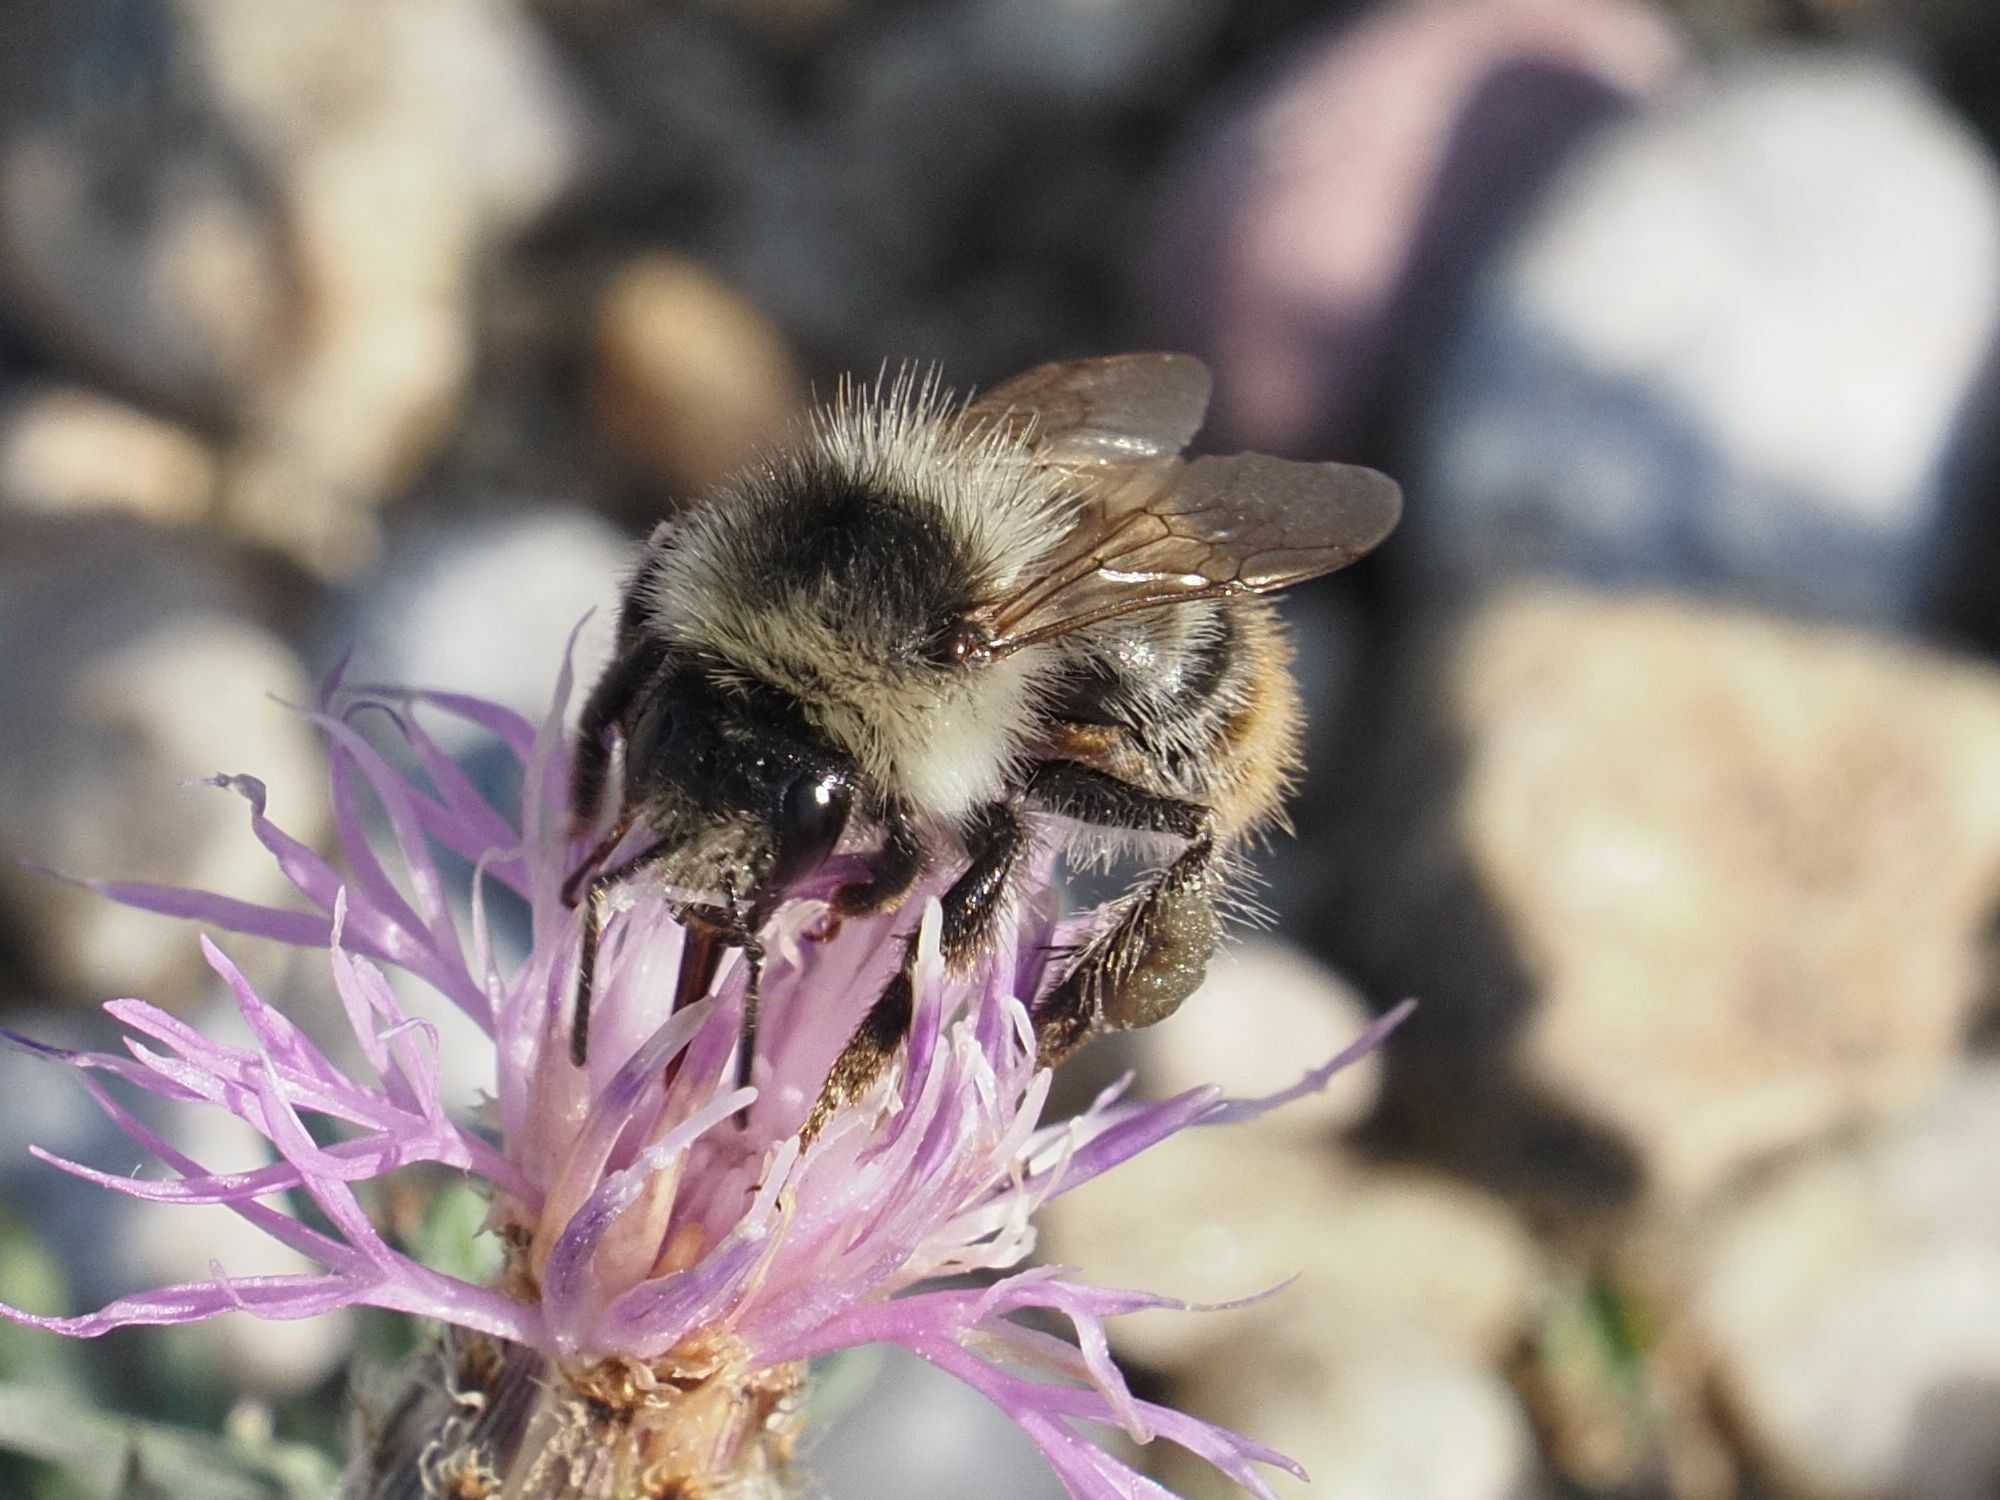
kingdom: Animalia
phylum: Arthropoda
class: Insecta
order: Hymenoptera
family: Apidae
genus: Bombus
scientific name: Bombus sylvarum
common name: Shrill carder bee
